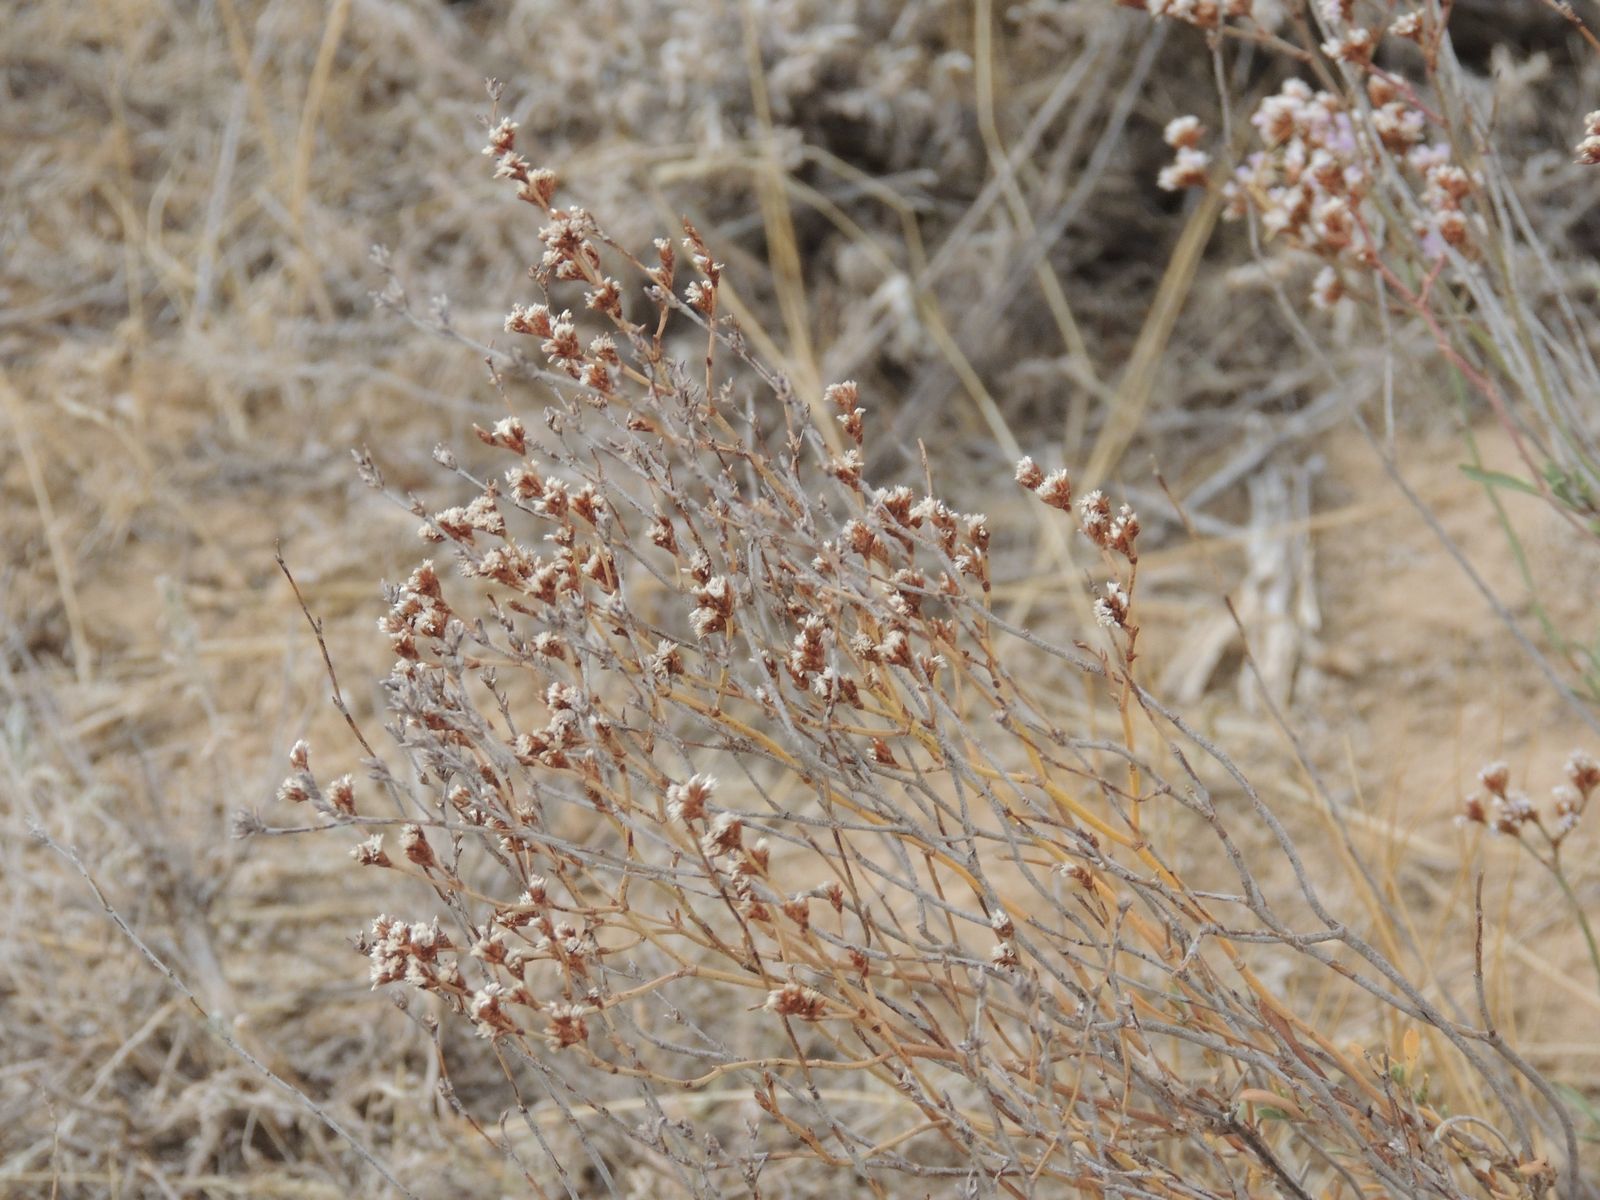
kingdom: Plantae
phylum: Tracheophyta
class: Magnoliopsida
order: Caryophyllales
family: Plumbaginaceae
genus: Limonium
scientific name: Limonium suffruticosum
